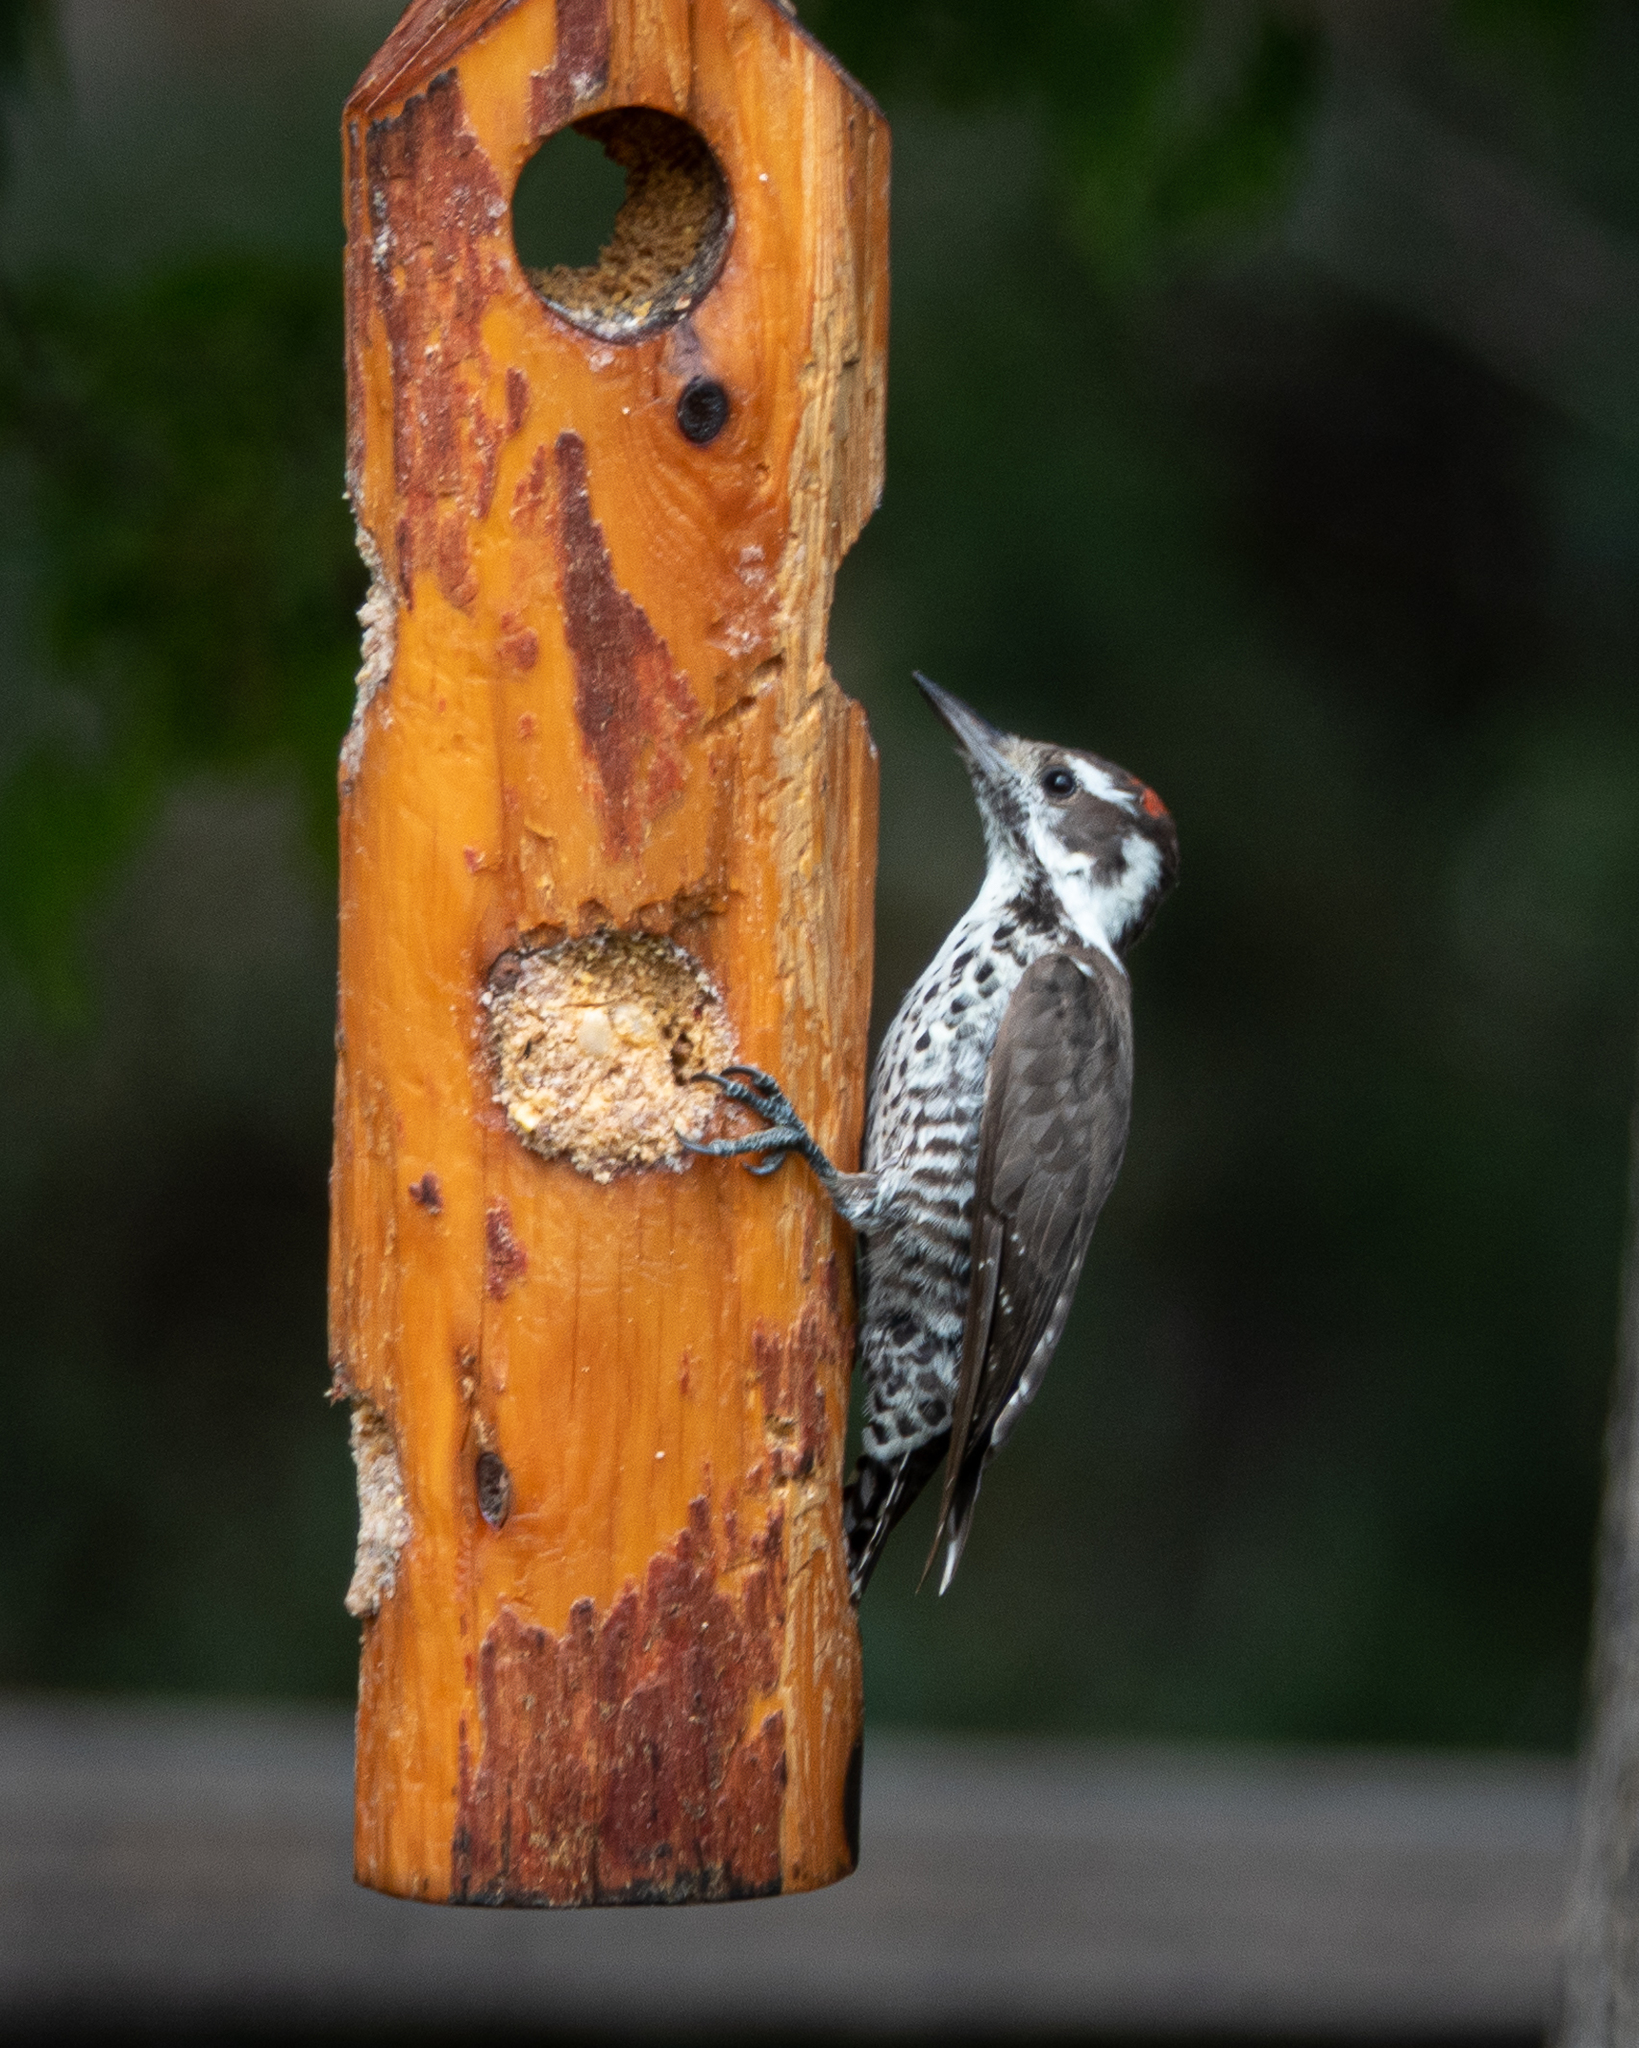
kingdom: Animalia
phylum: Chordata
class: Aves
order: Piciformes
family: Picidae
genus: Leuconotopicus
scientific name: Leuconotopicus arizonae
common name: Arizona woodpecker
